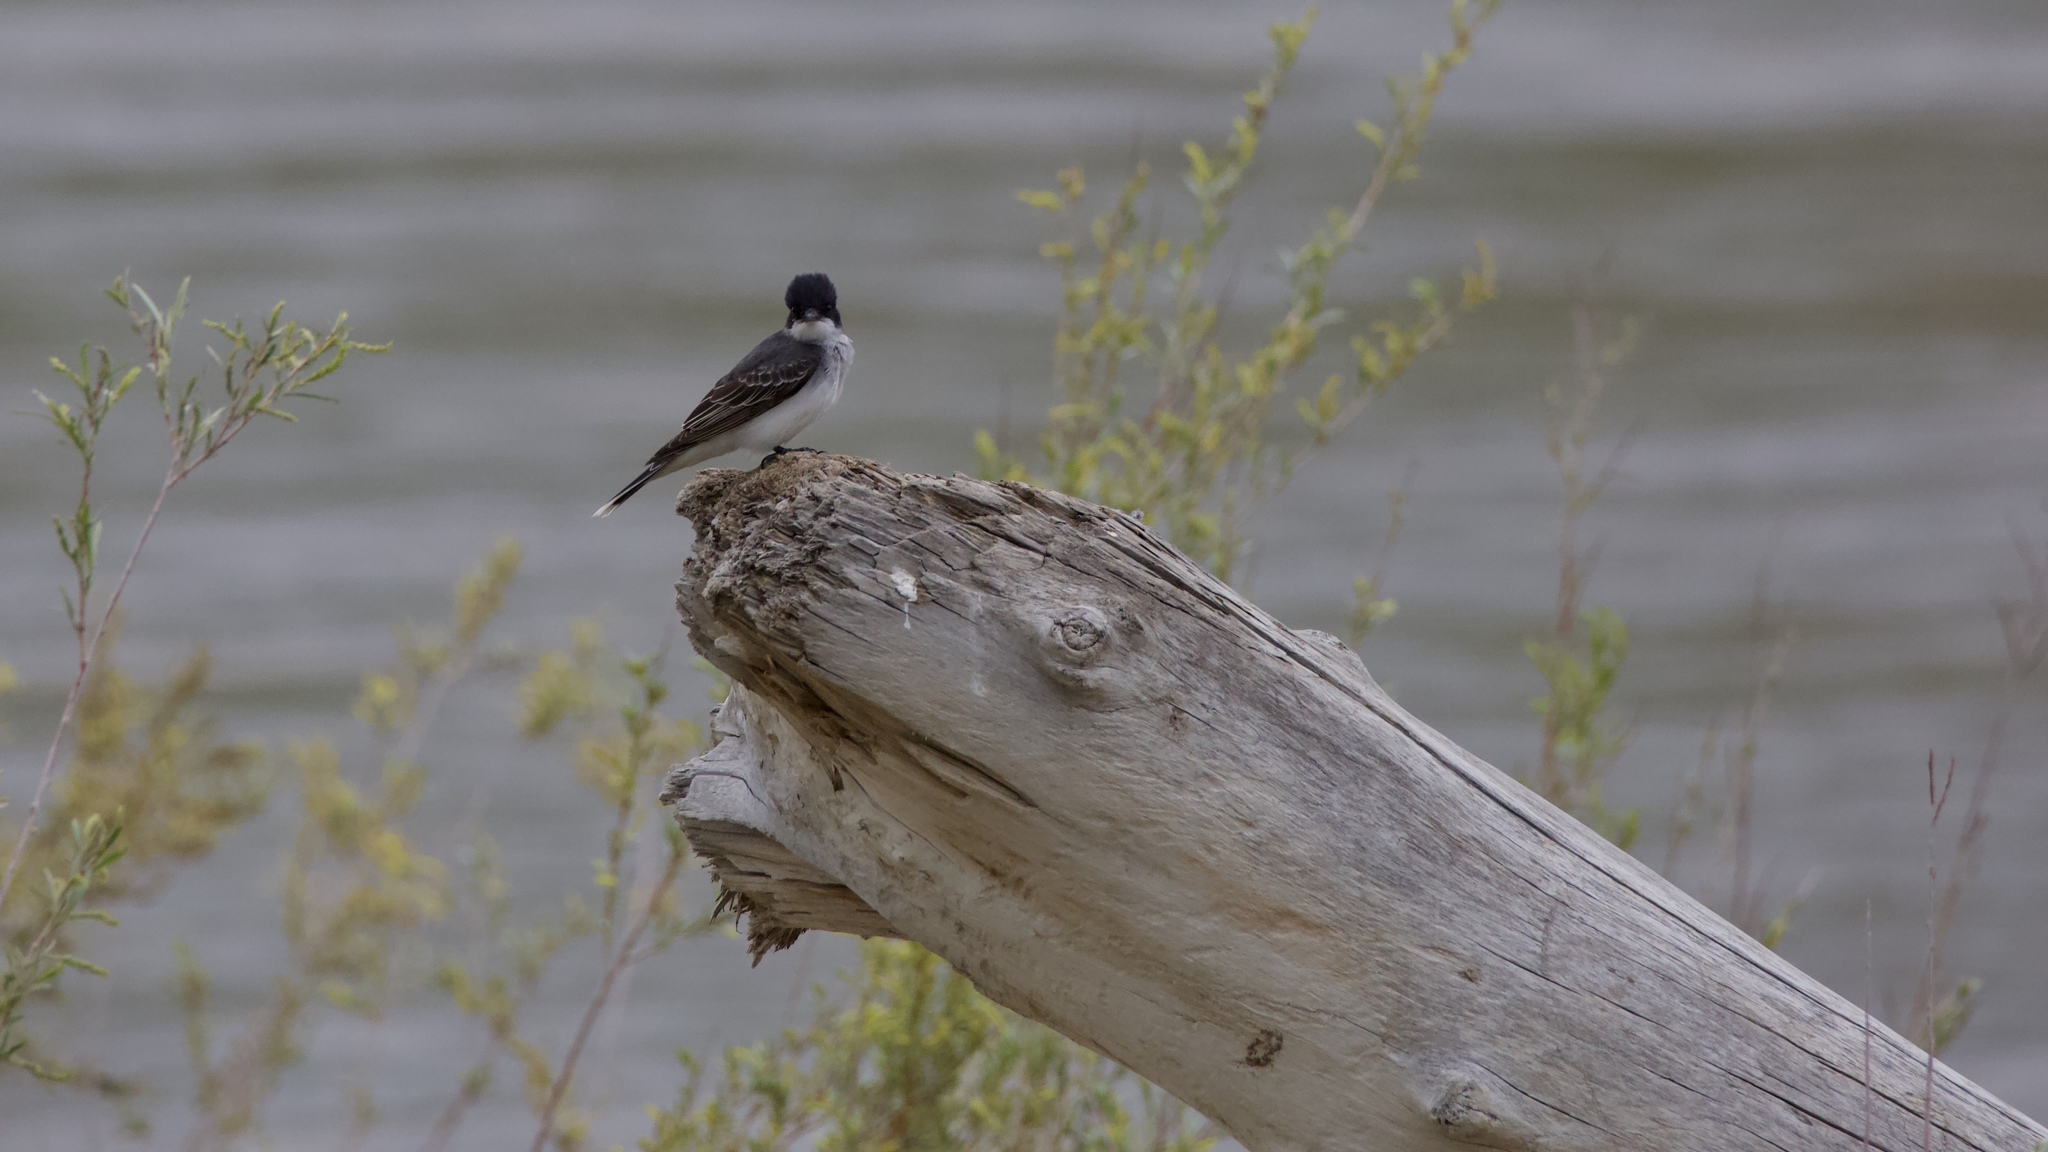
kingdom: Animalia
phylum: Chordata
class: Aves
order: Passeriformes
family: Tyrannidae
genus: Tyrannus
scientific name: Tyrannus tyrannus
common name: Eastern kingbird
